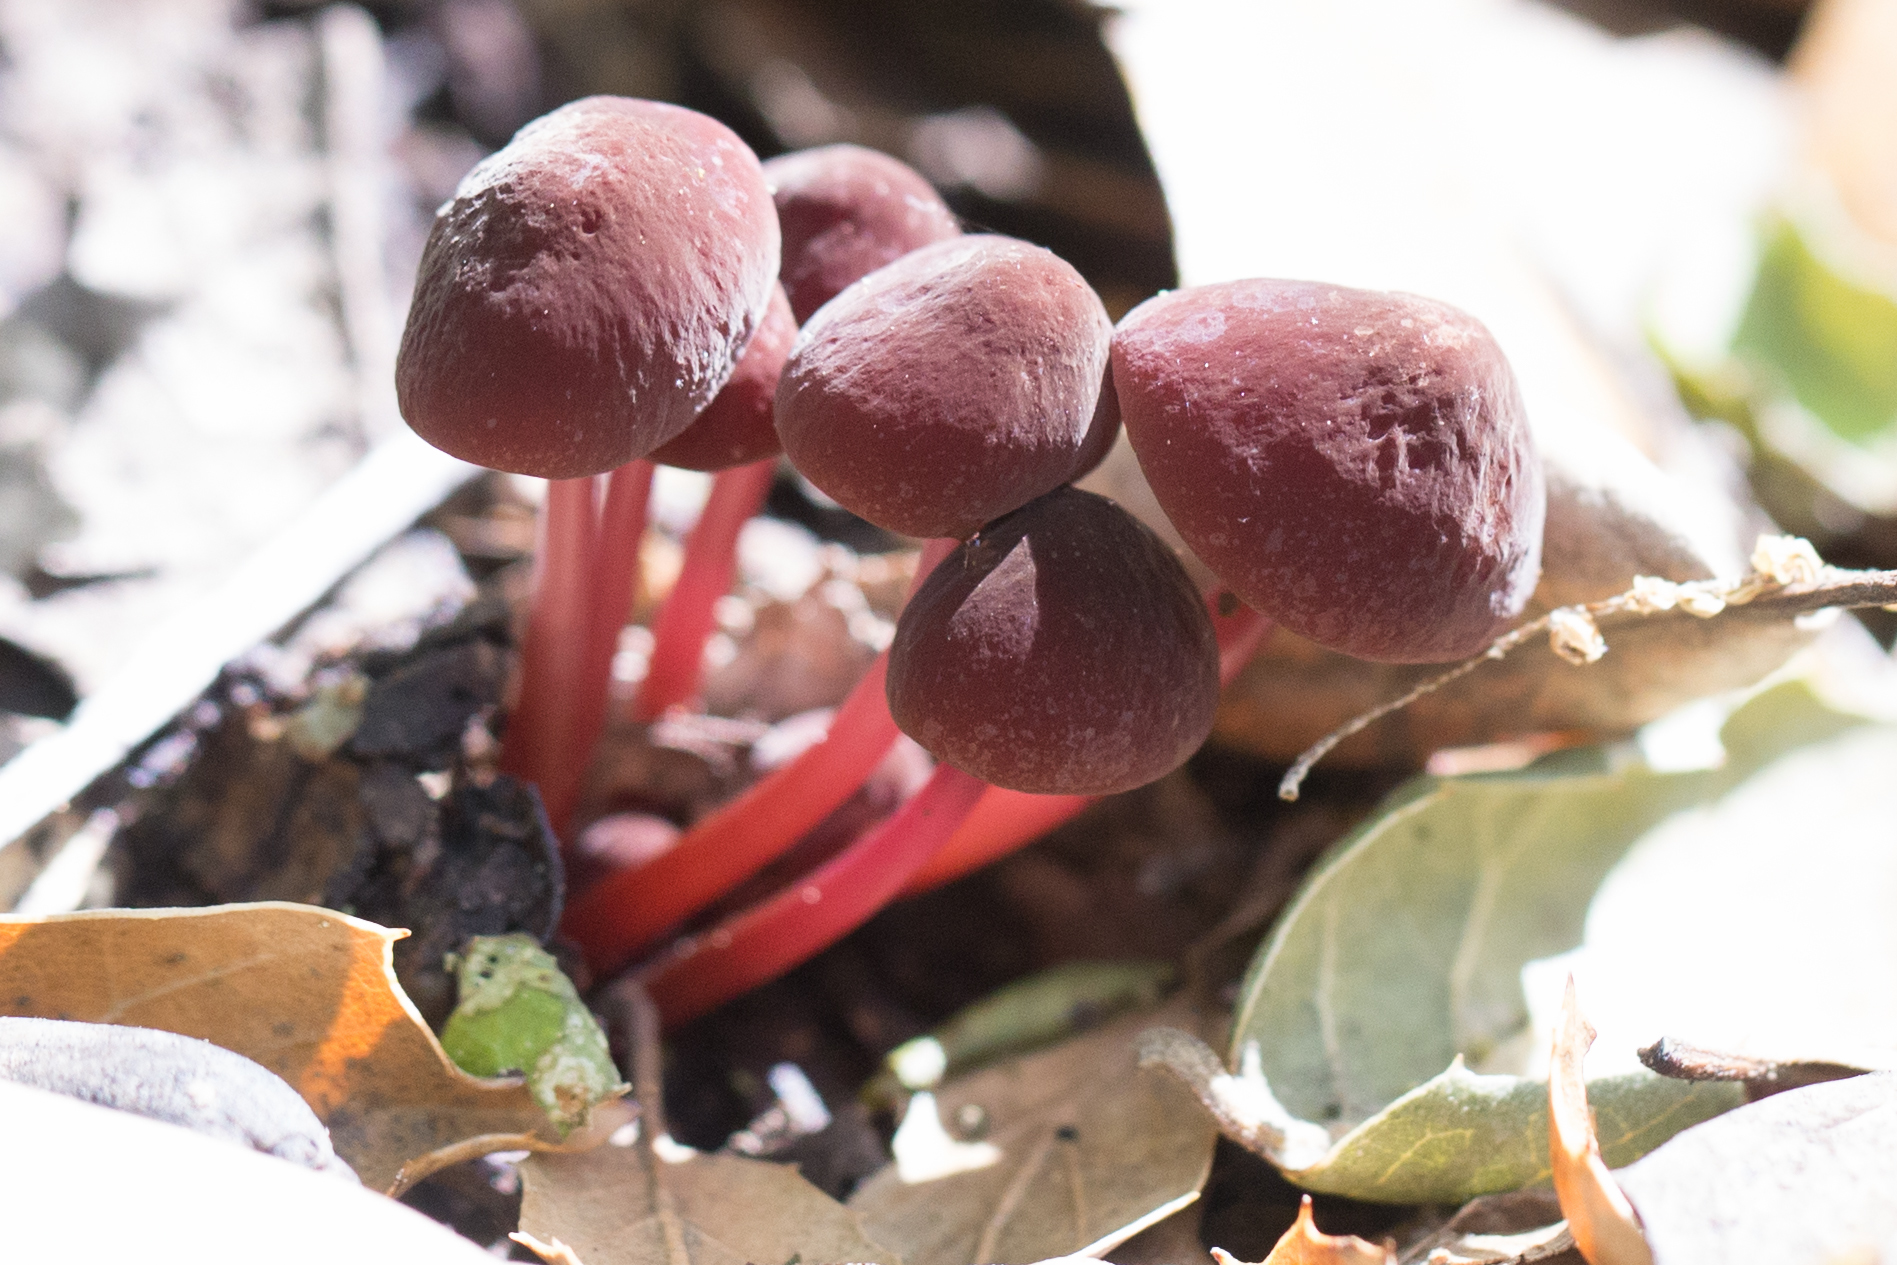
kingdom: Fungi
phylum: Basidiomycota
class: Agaricomycetes
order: Agaricales
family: Marasmiaceae
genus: Marasmius
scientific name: Marasmius plicatulus
